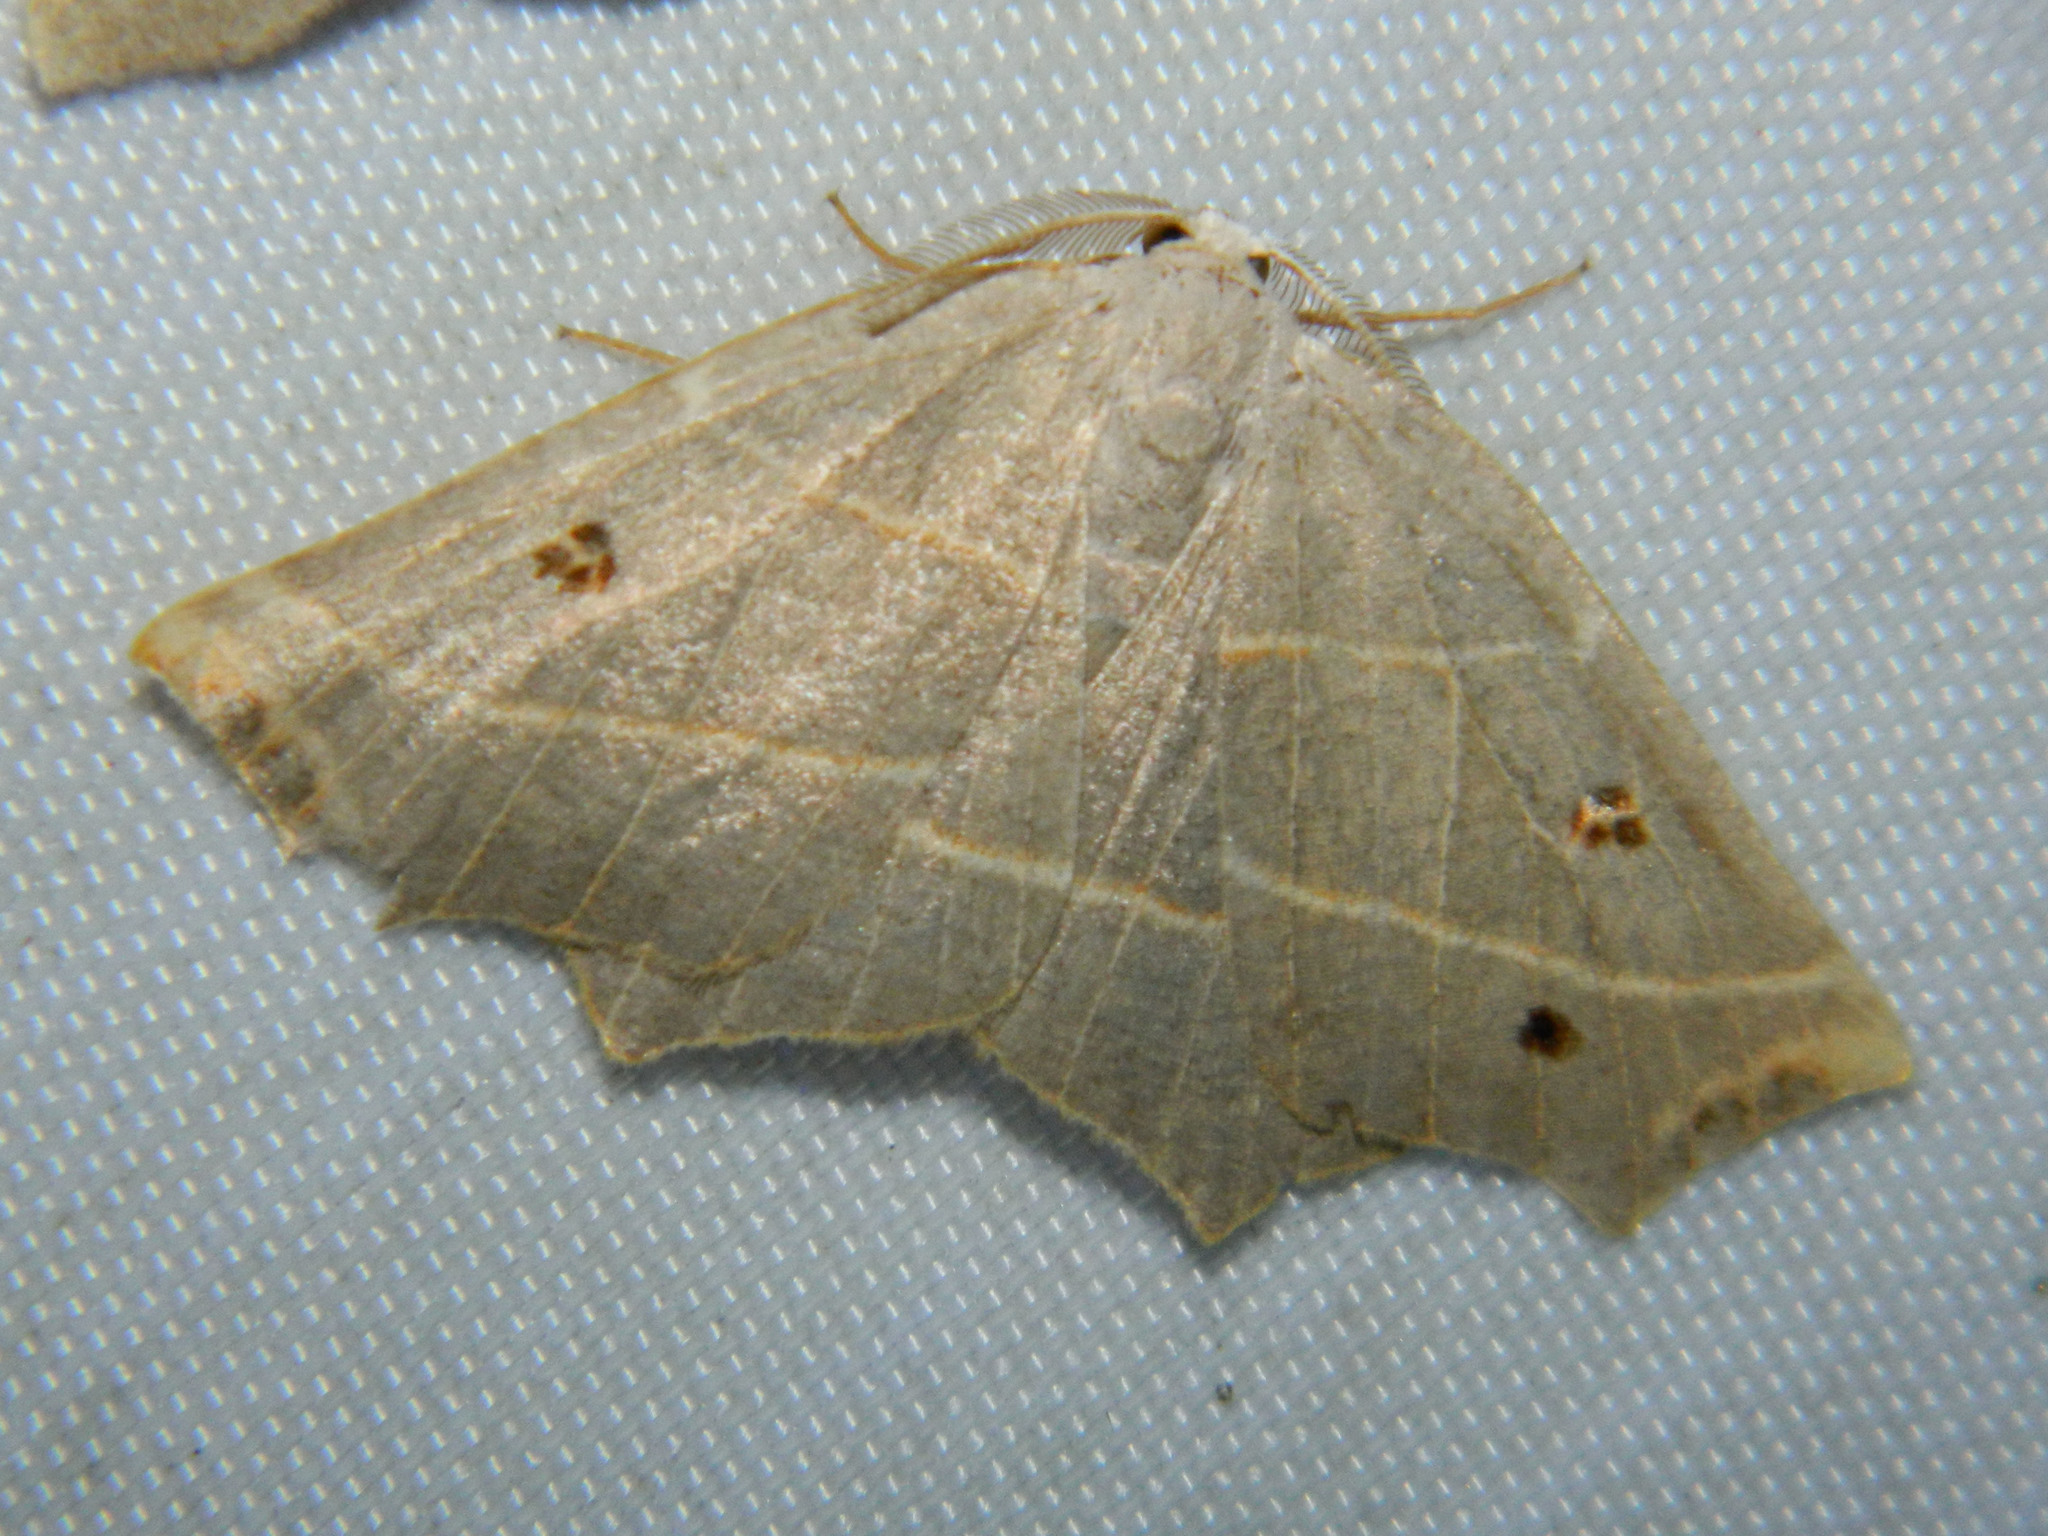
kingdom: Animalia
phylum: Arthropoda
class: Insecta
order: Lepidoptera
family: Geometridae
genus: Metanema
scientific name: Metanema inatomaria
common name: Pale metanema
